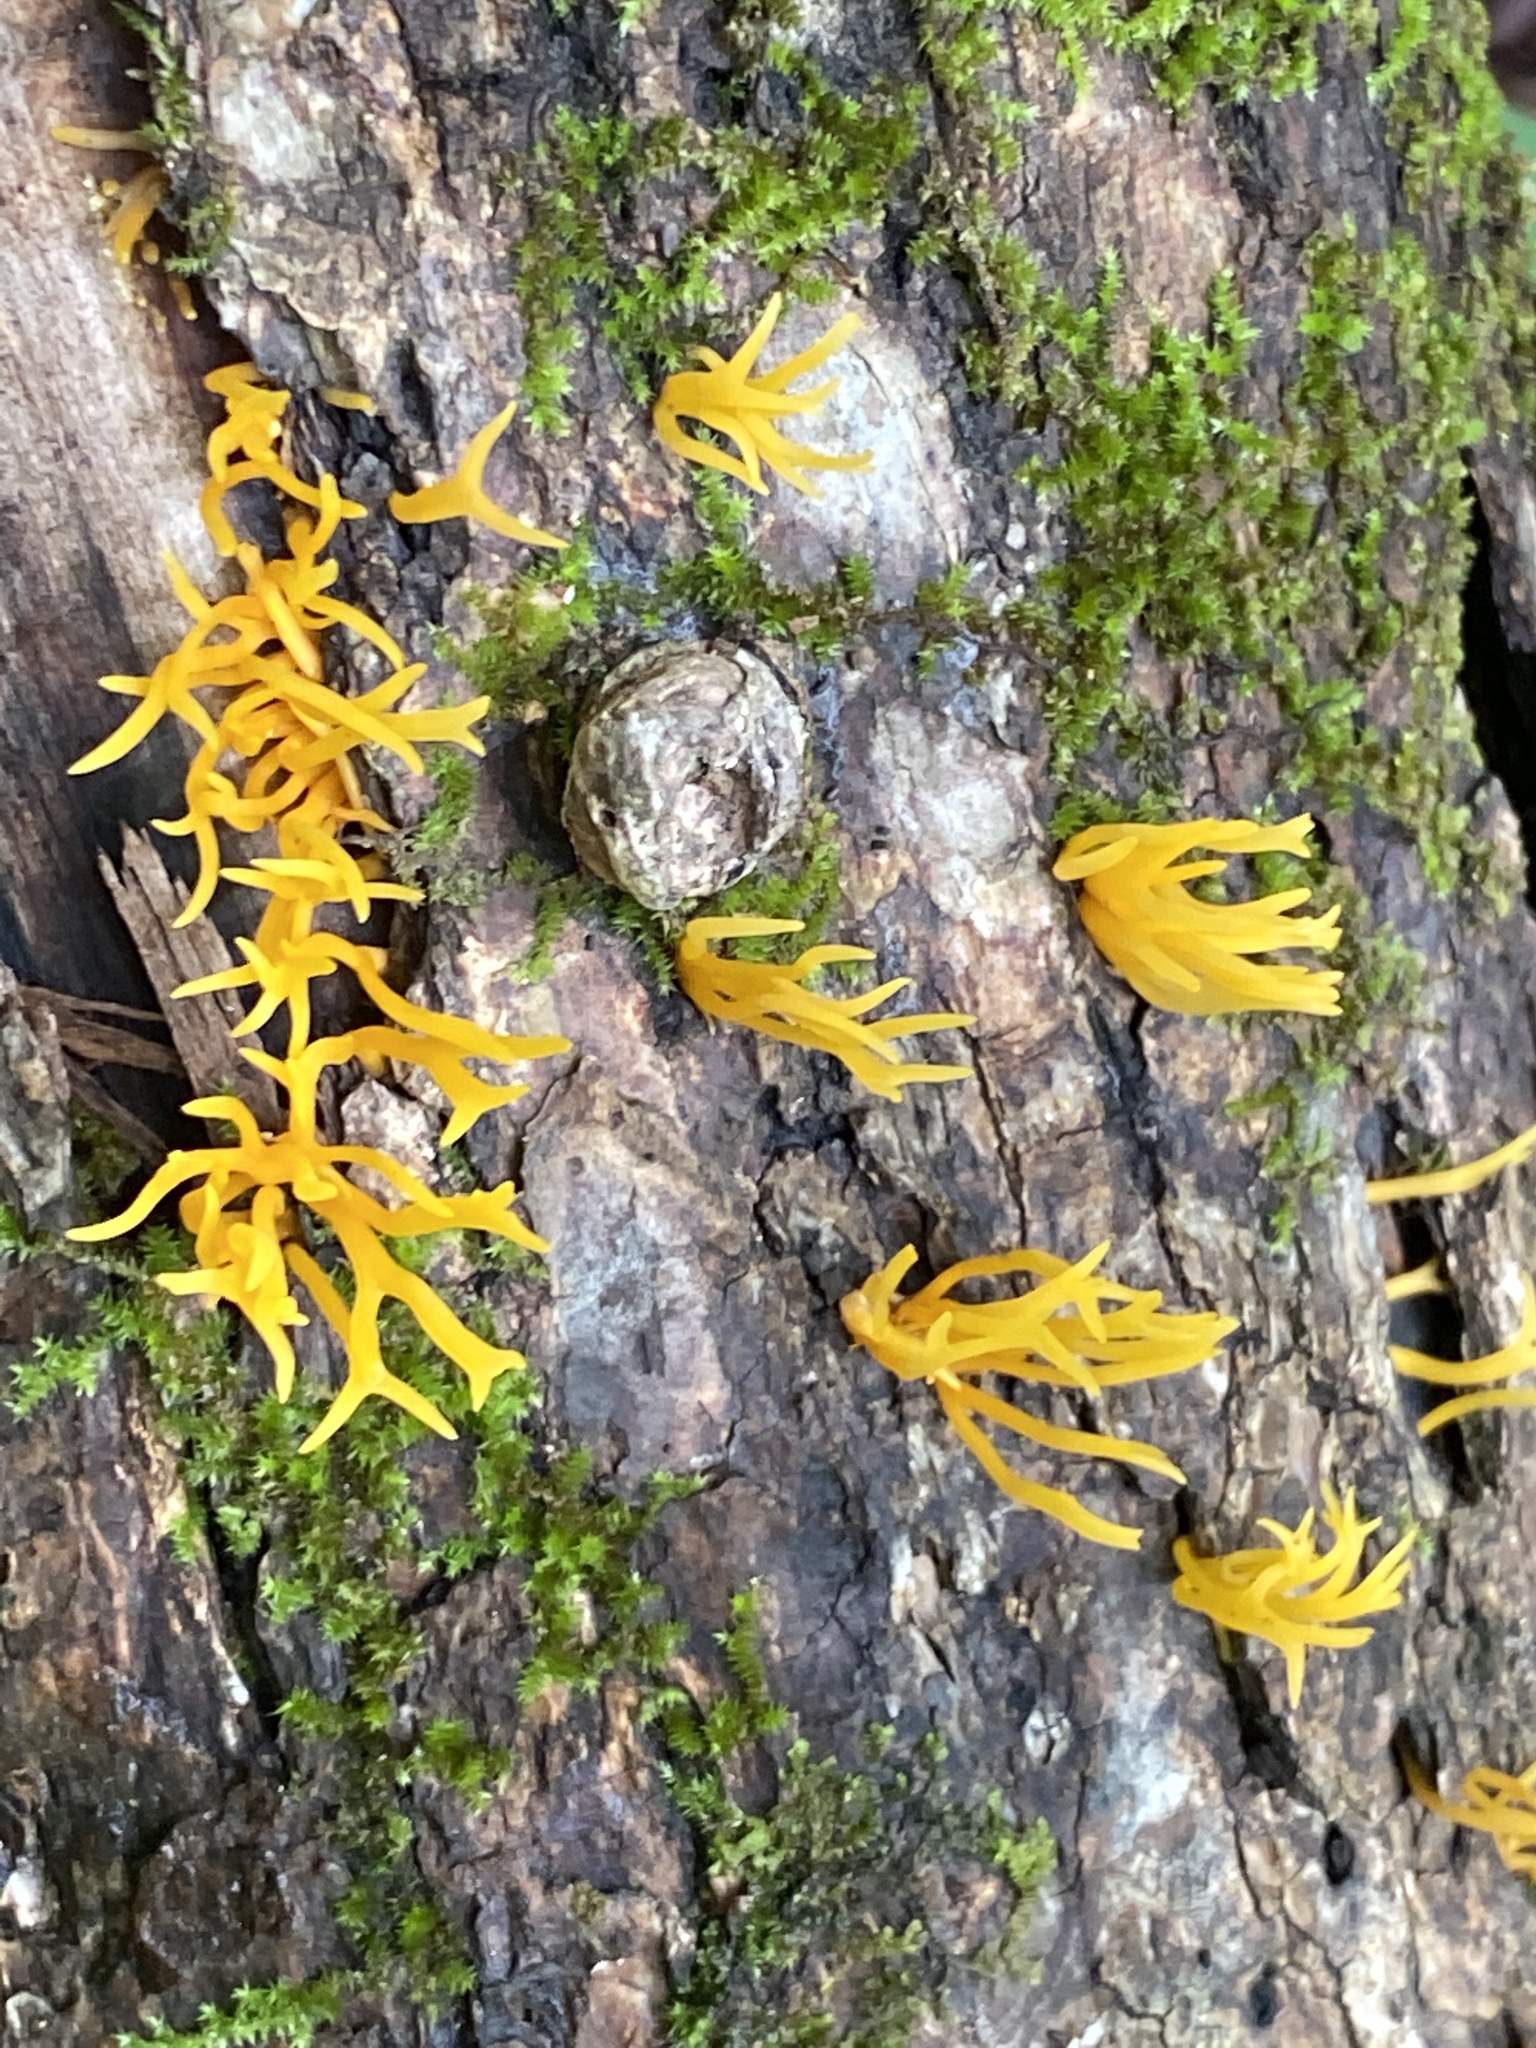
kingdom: Fungi
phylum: Basidiomycota
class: Dacrymycetes
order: Dacrymycetales
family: Dacrymycetaceae
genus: Calocera
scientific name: Calocera cornea
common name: Small stagshorn
